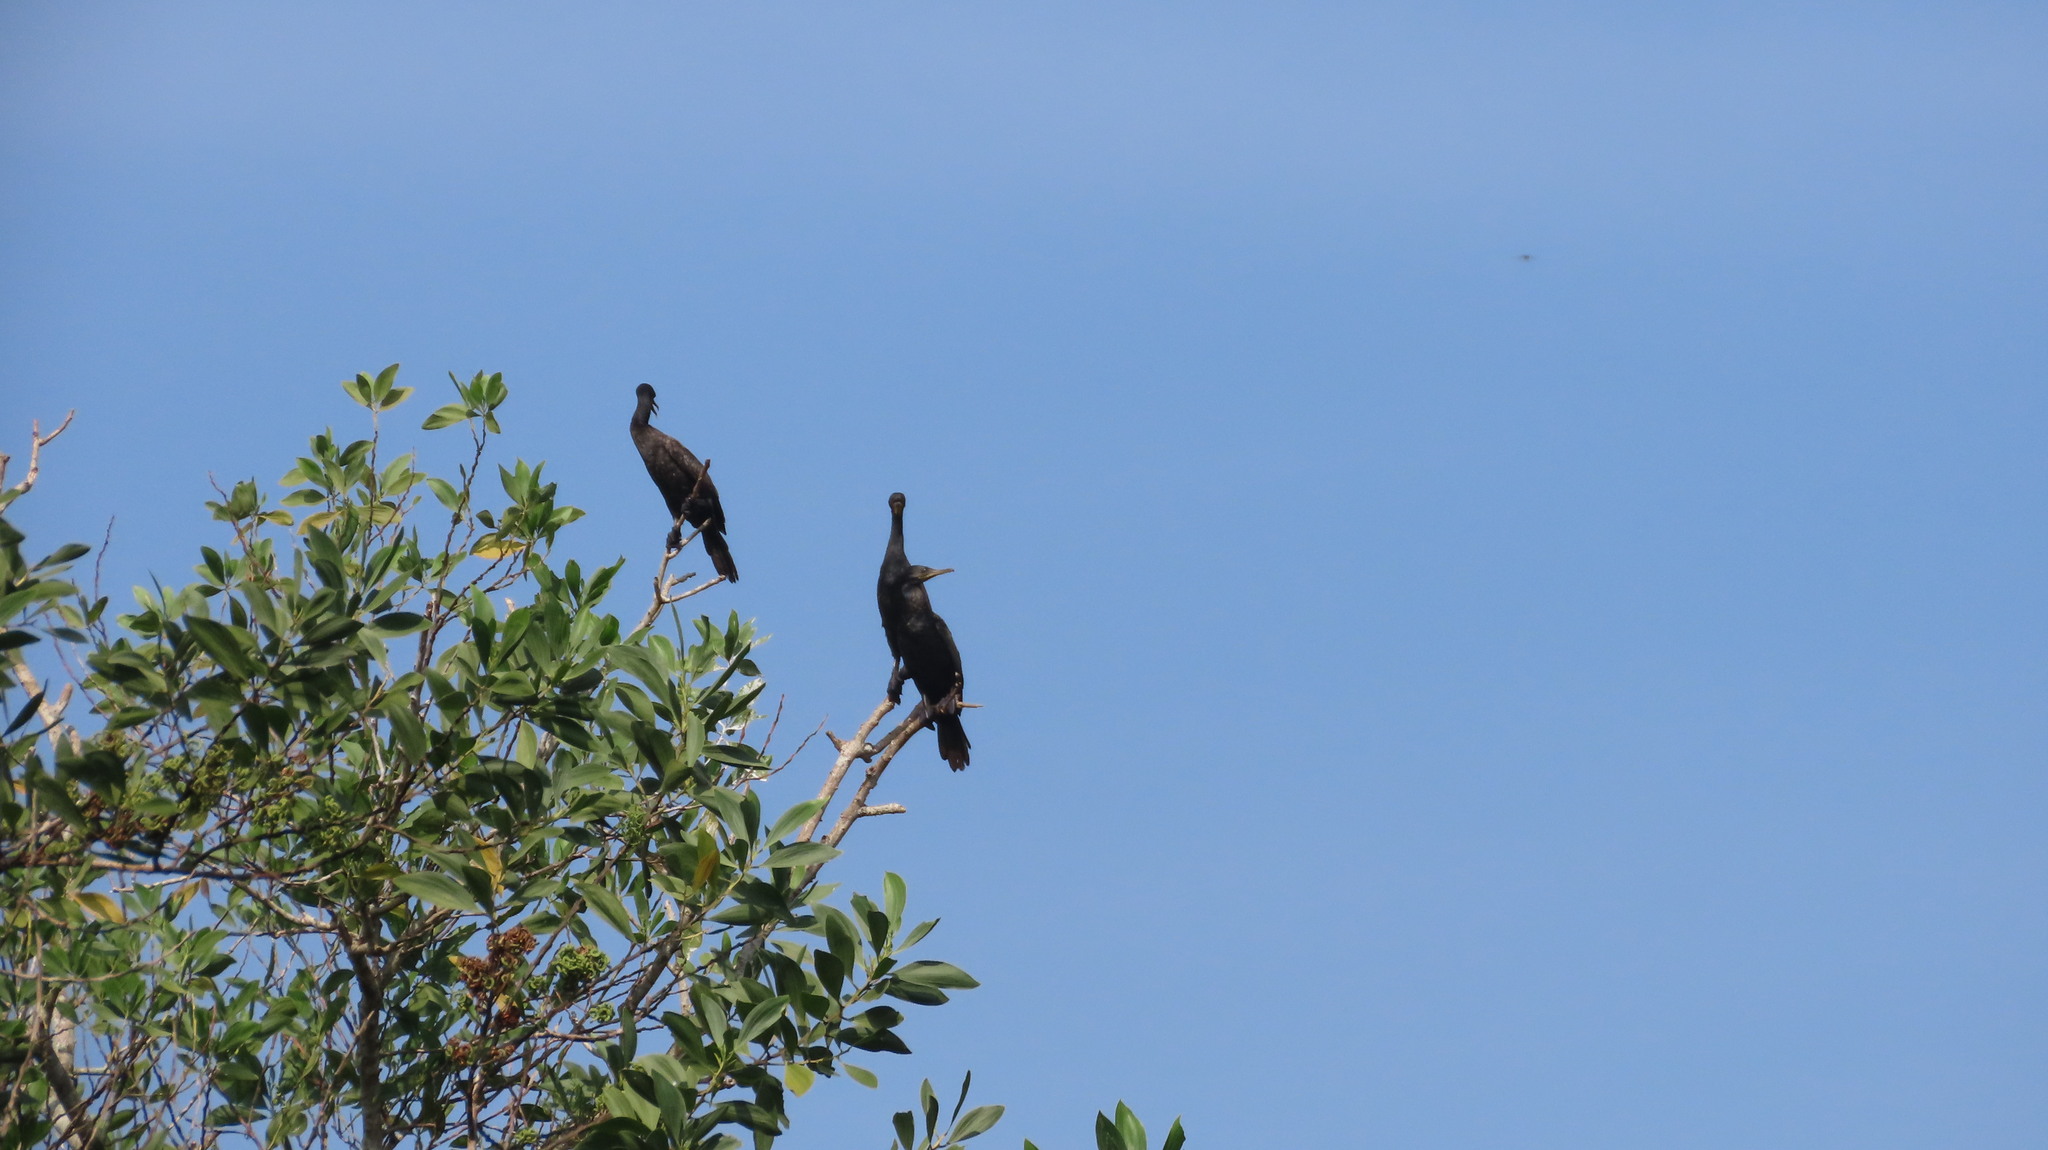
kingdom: Animalia
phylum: Chordata
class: Aves
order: Suliformes
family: Phalacrocoracidae
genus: Phalacrocorax
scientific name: Phalacrocorax fuscicollis
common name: Indian cormorant
